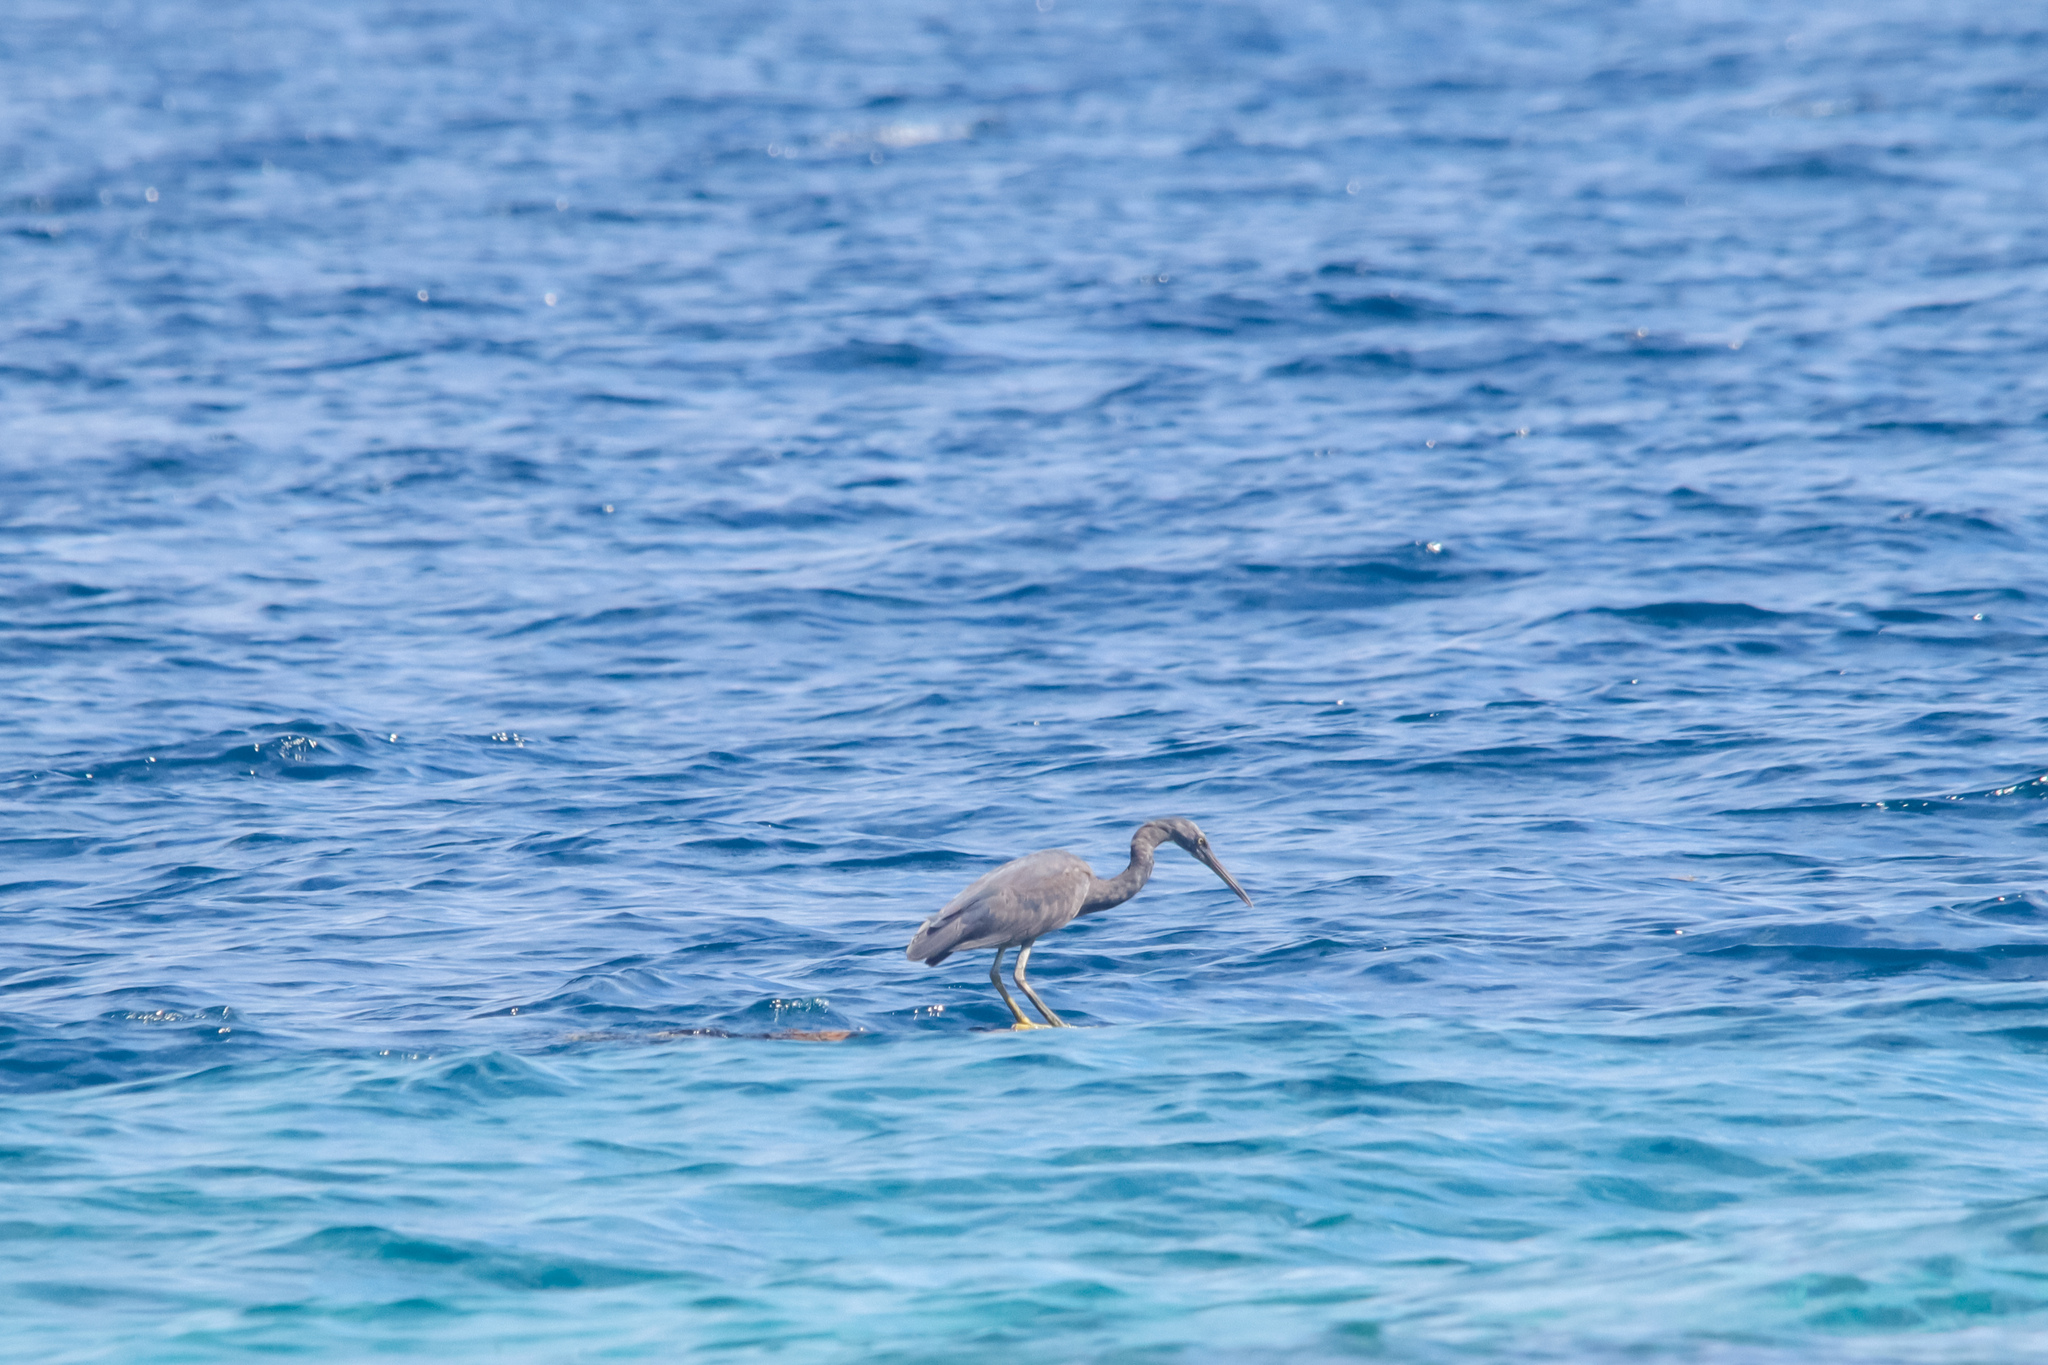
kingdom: Animalia
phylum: Chordata
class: Aves
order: Pelecaniformes
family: Ardeidae
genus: Egretta
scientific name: Egretta sacra
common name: Pacific reef heron
